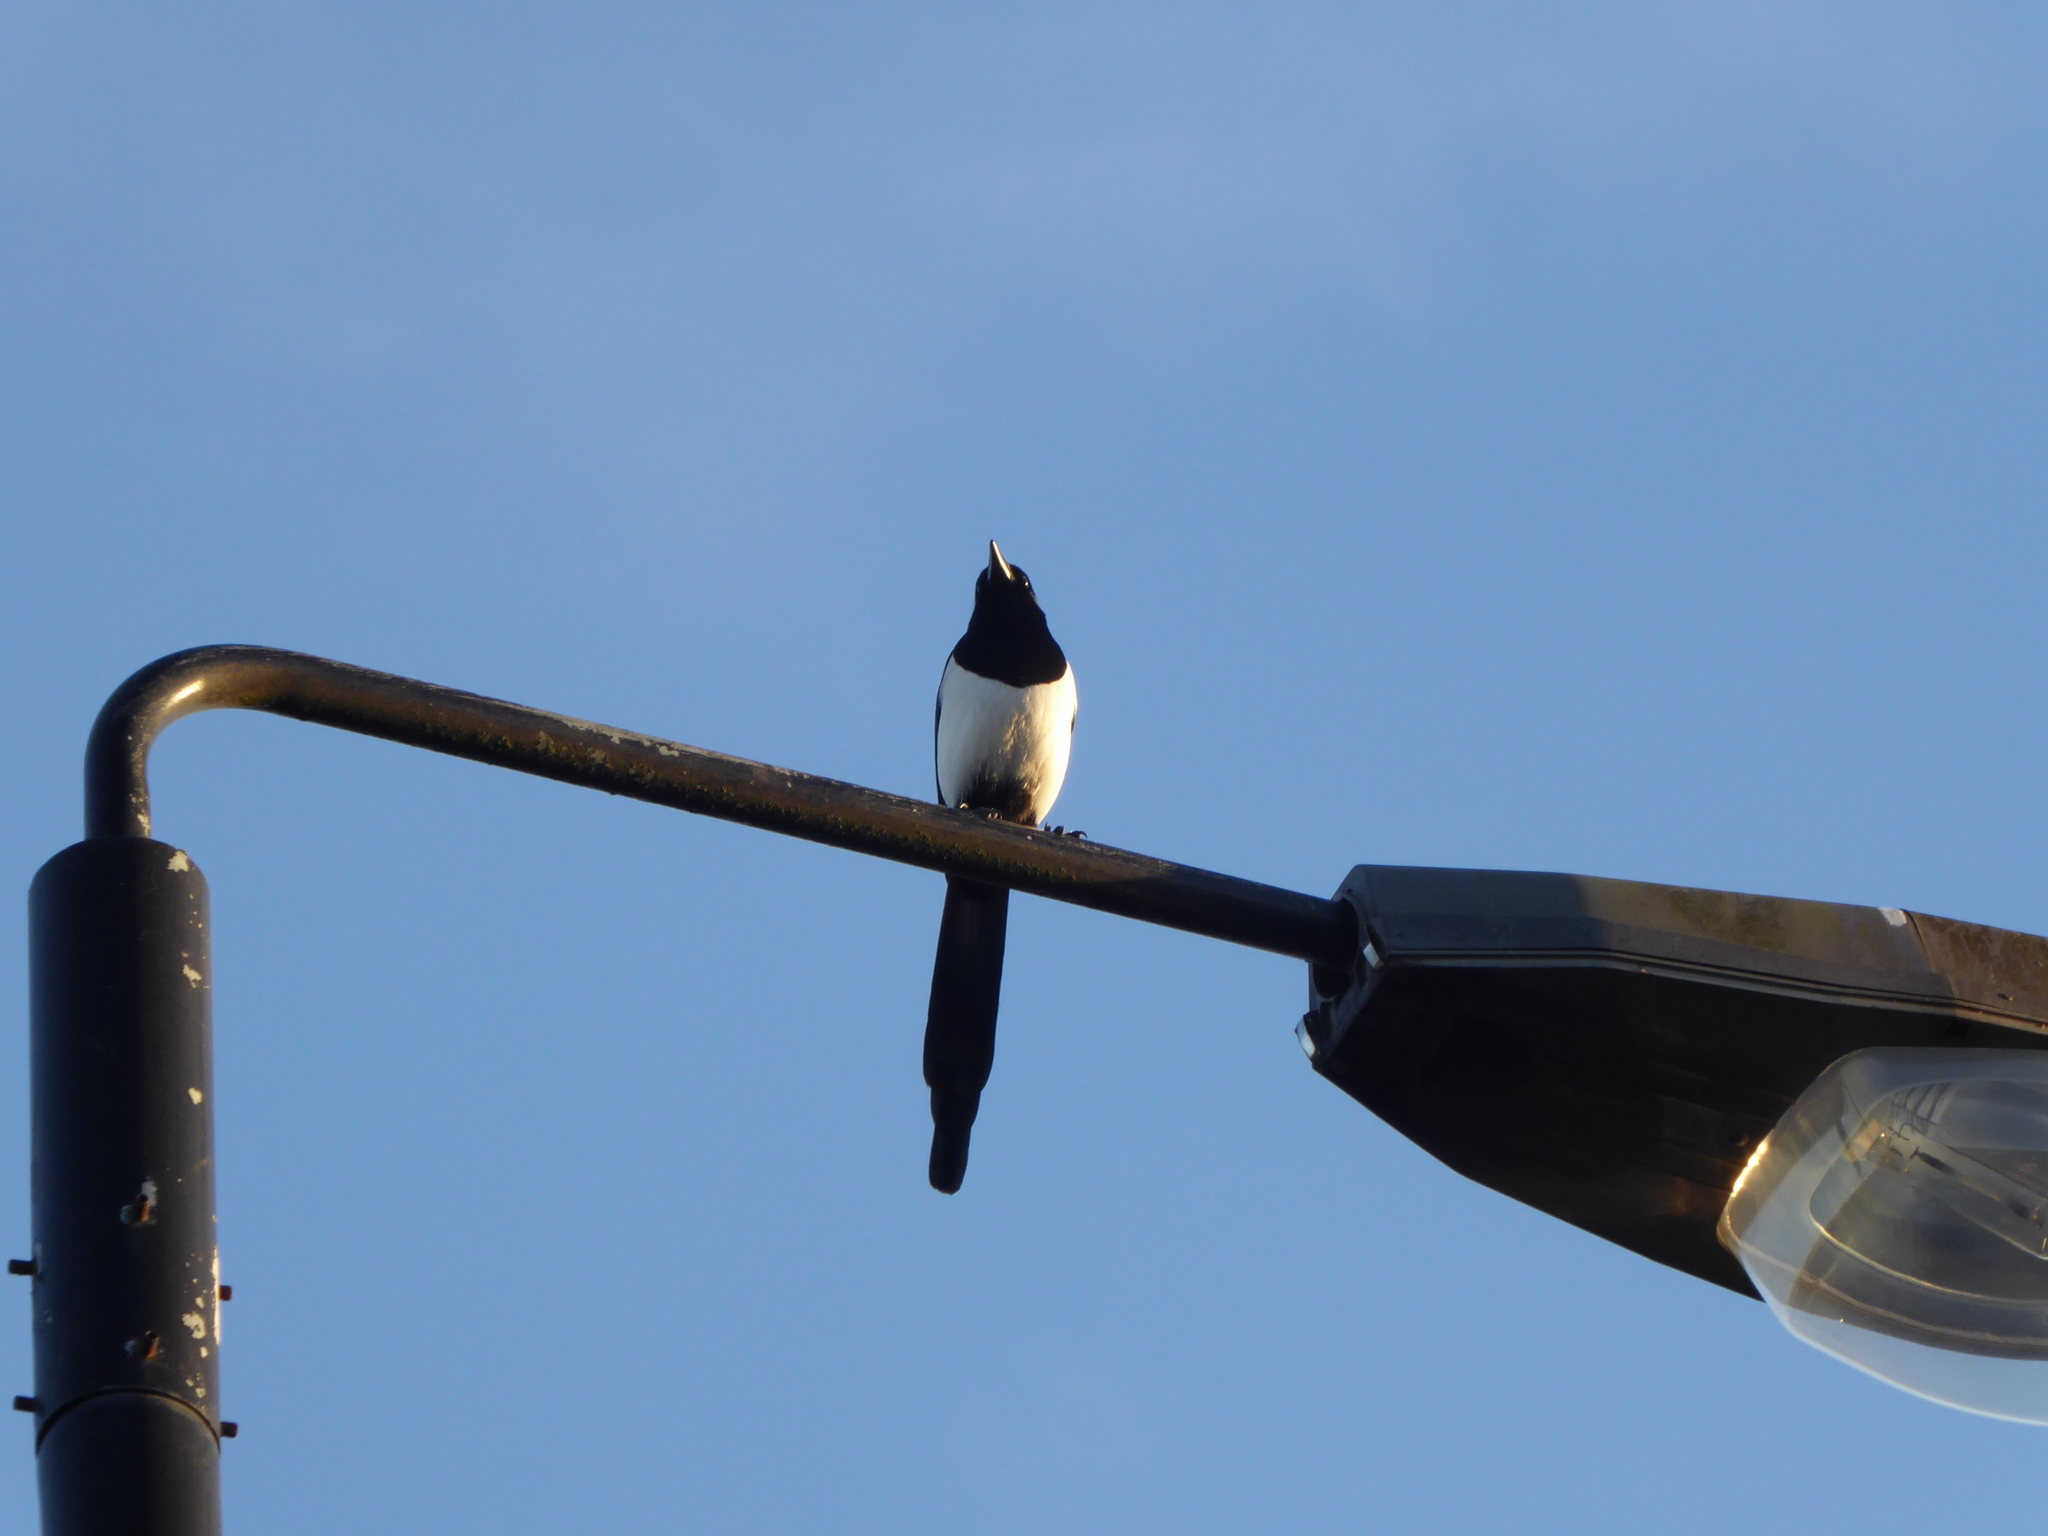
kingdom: Animalia
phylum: Chordata
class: Aves
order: Passeriformes
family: Corvidae
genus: Pica
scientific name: Pica pica
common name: Eurasian magpie
